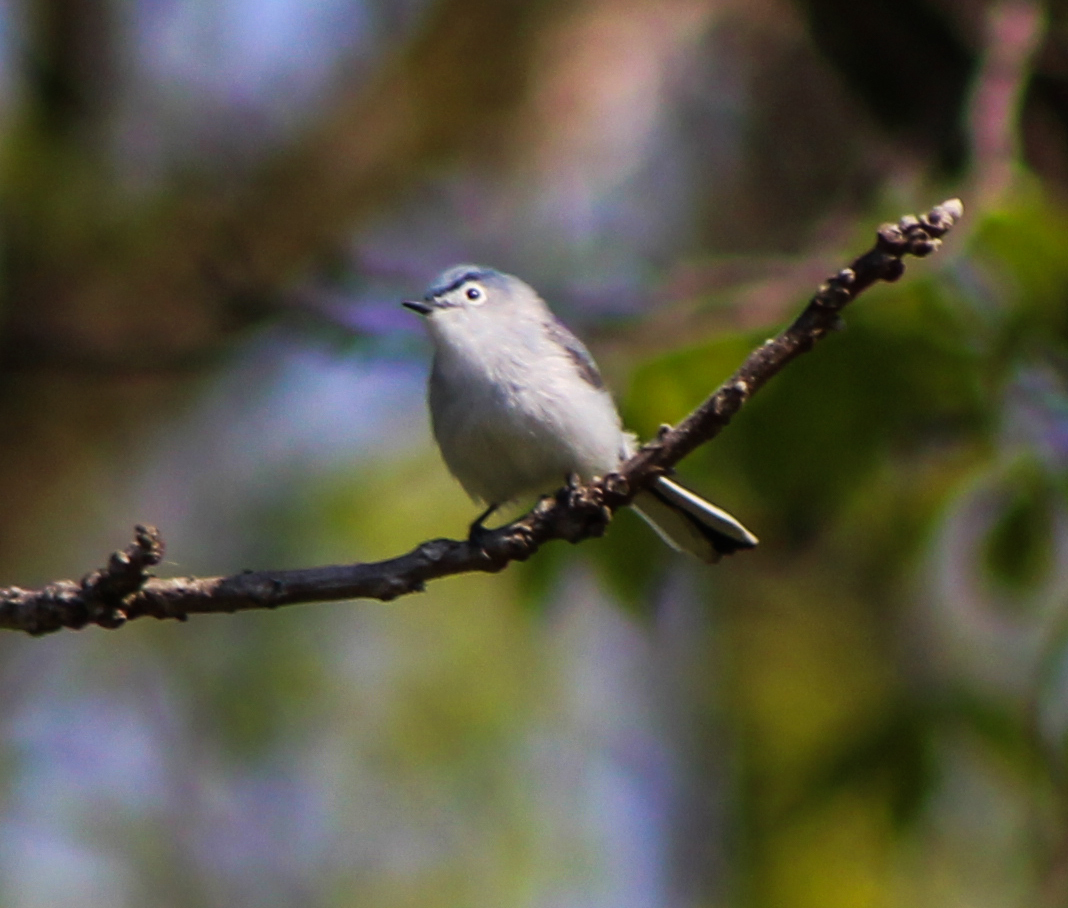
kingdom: Animalia
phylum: Chordata
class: Aves
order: Passeriformes
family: Polioptilidae
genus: Polioptila
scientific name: Polioptila caerulea
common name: Blue-gray gnatcatcher
